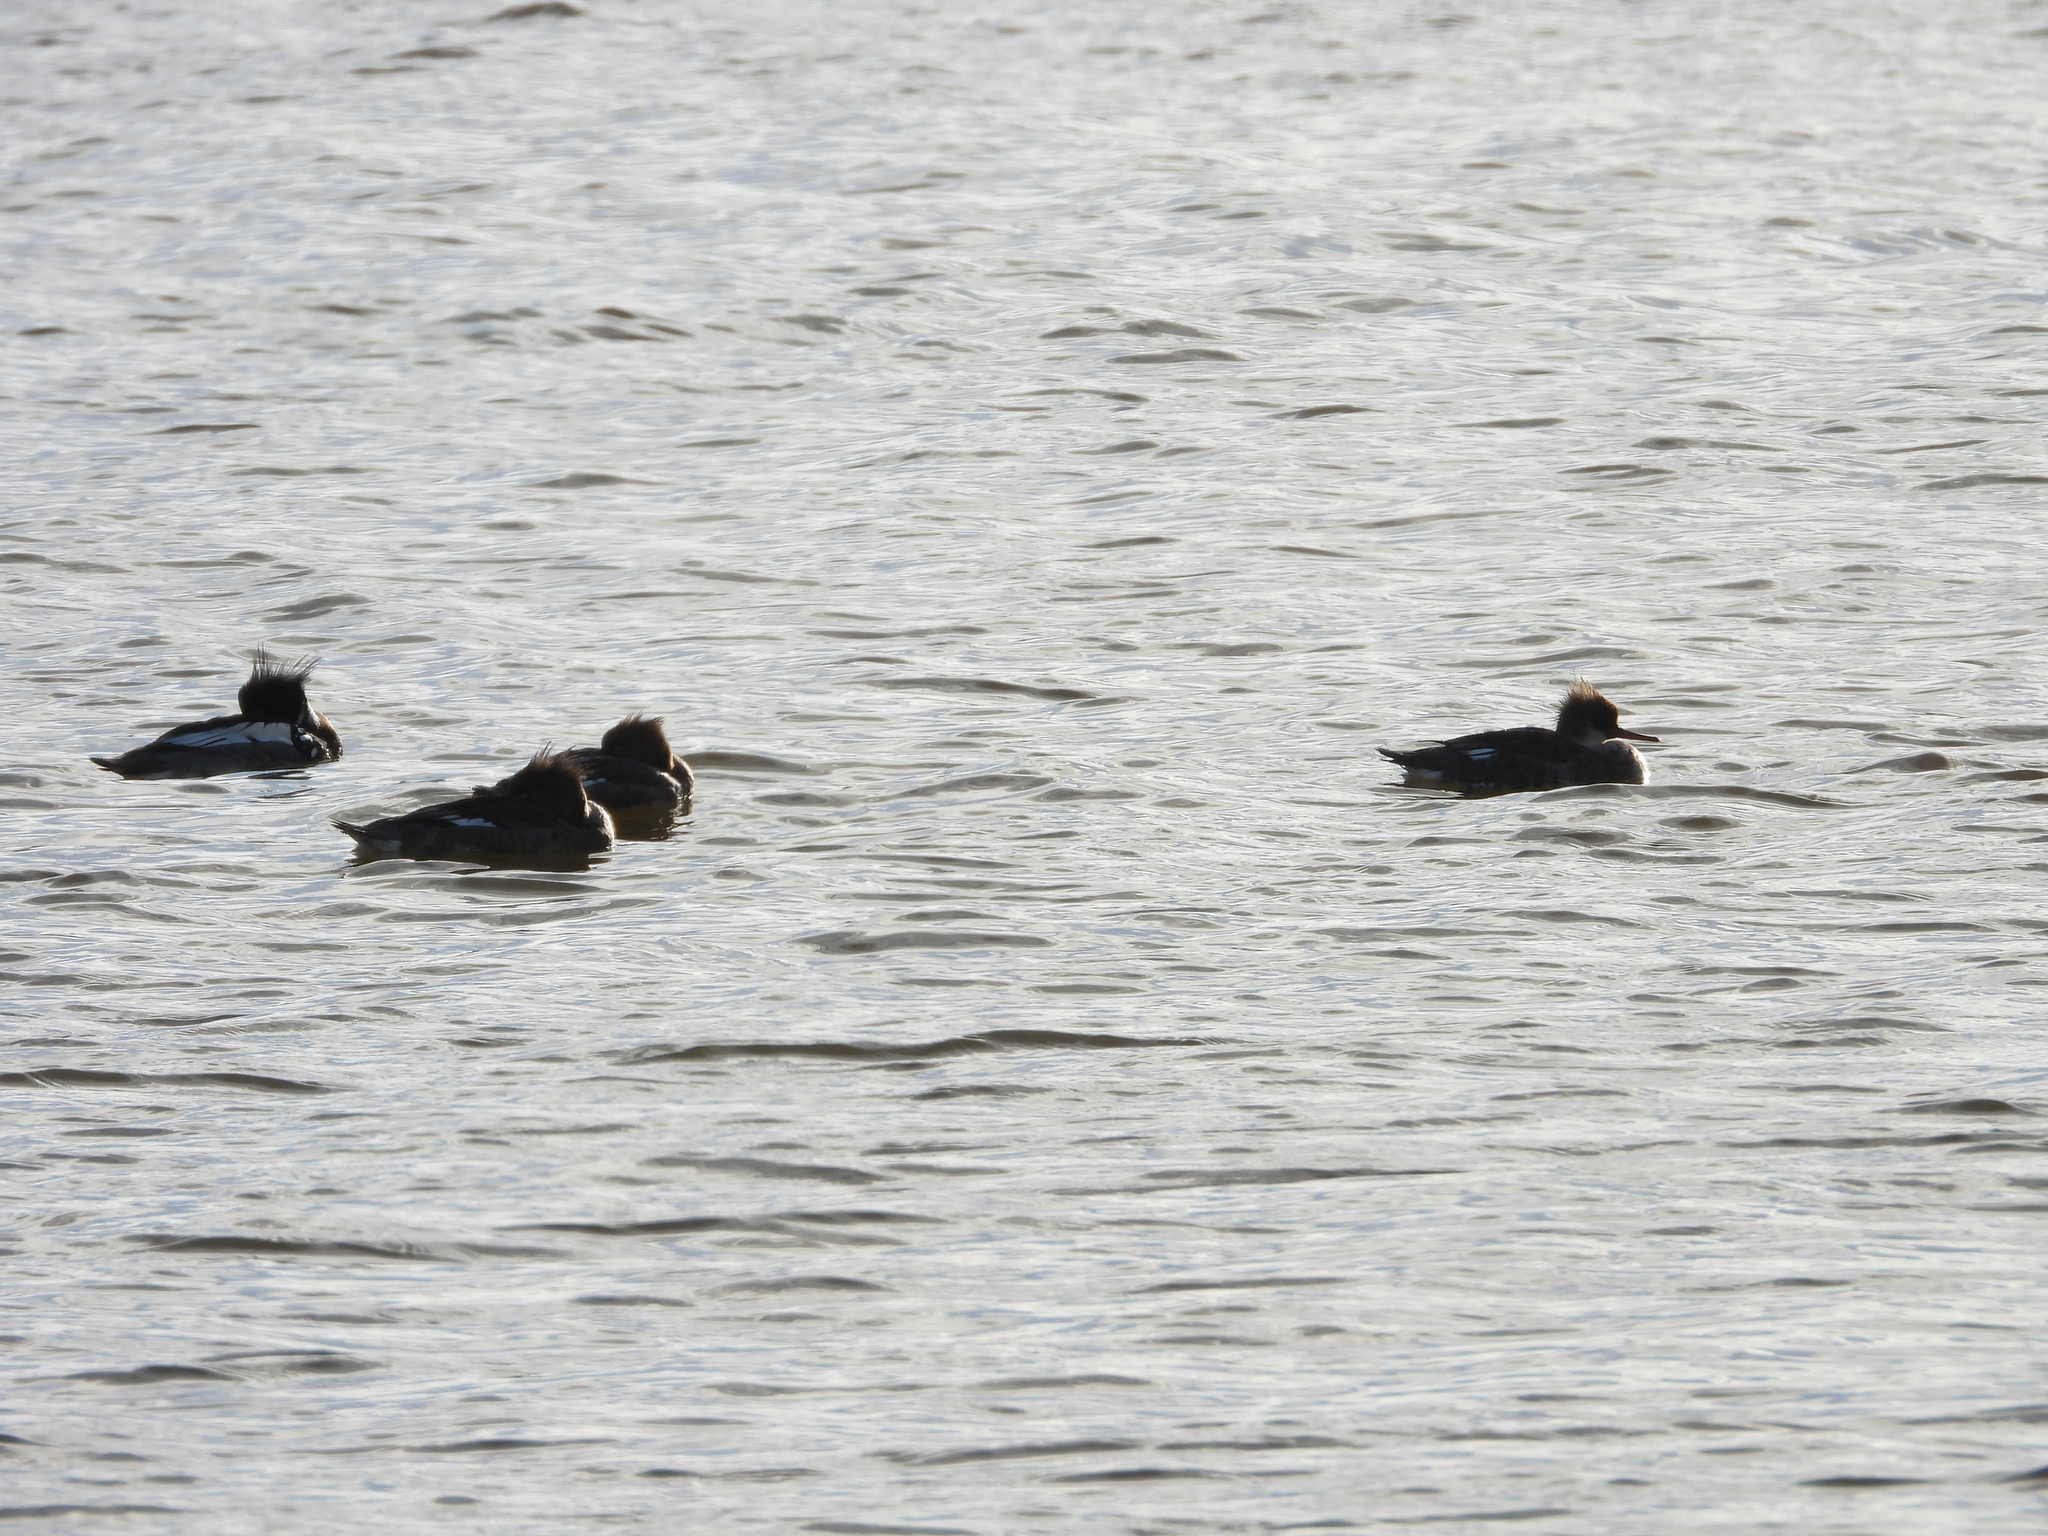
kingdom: Animalia
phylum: Chordata
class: Aves
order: Anseriformes
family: Anatidae
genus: Mergus
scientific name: Mergus serrator
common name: Red-breasted merganser
